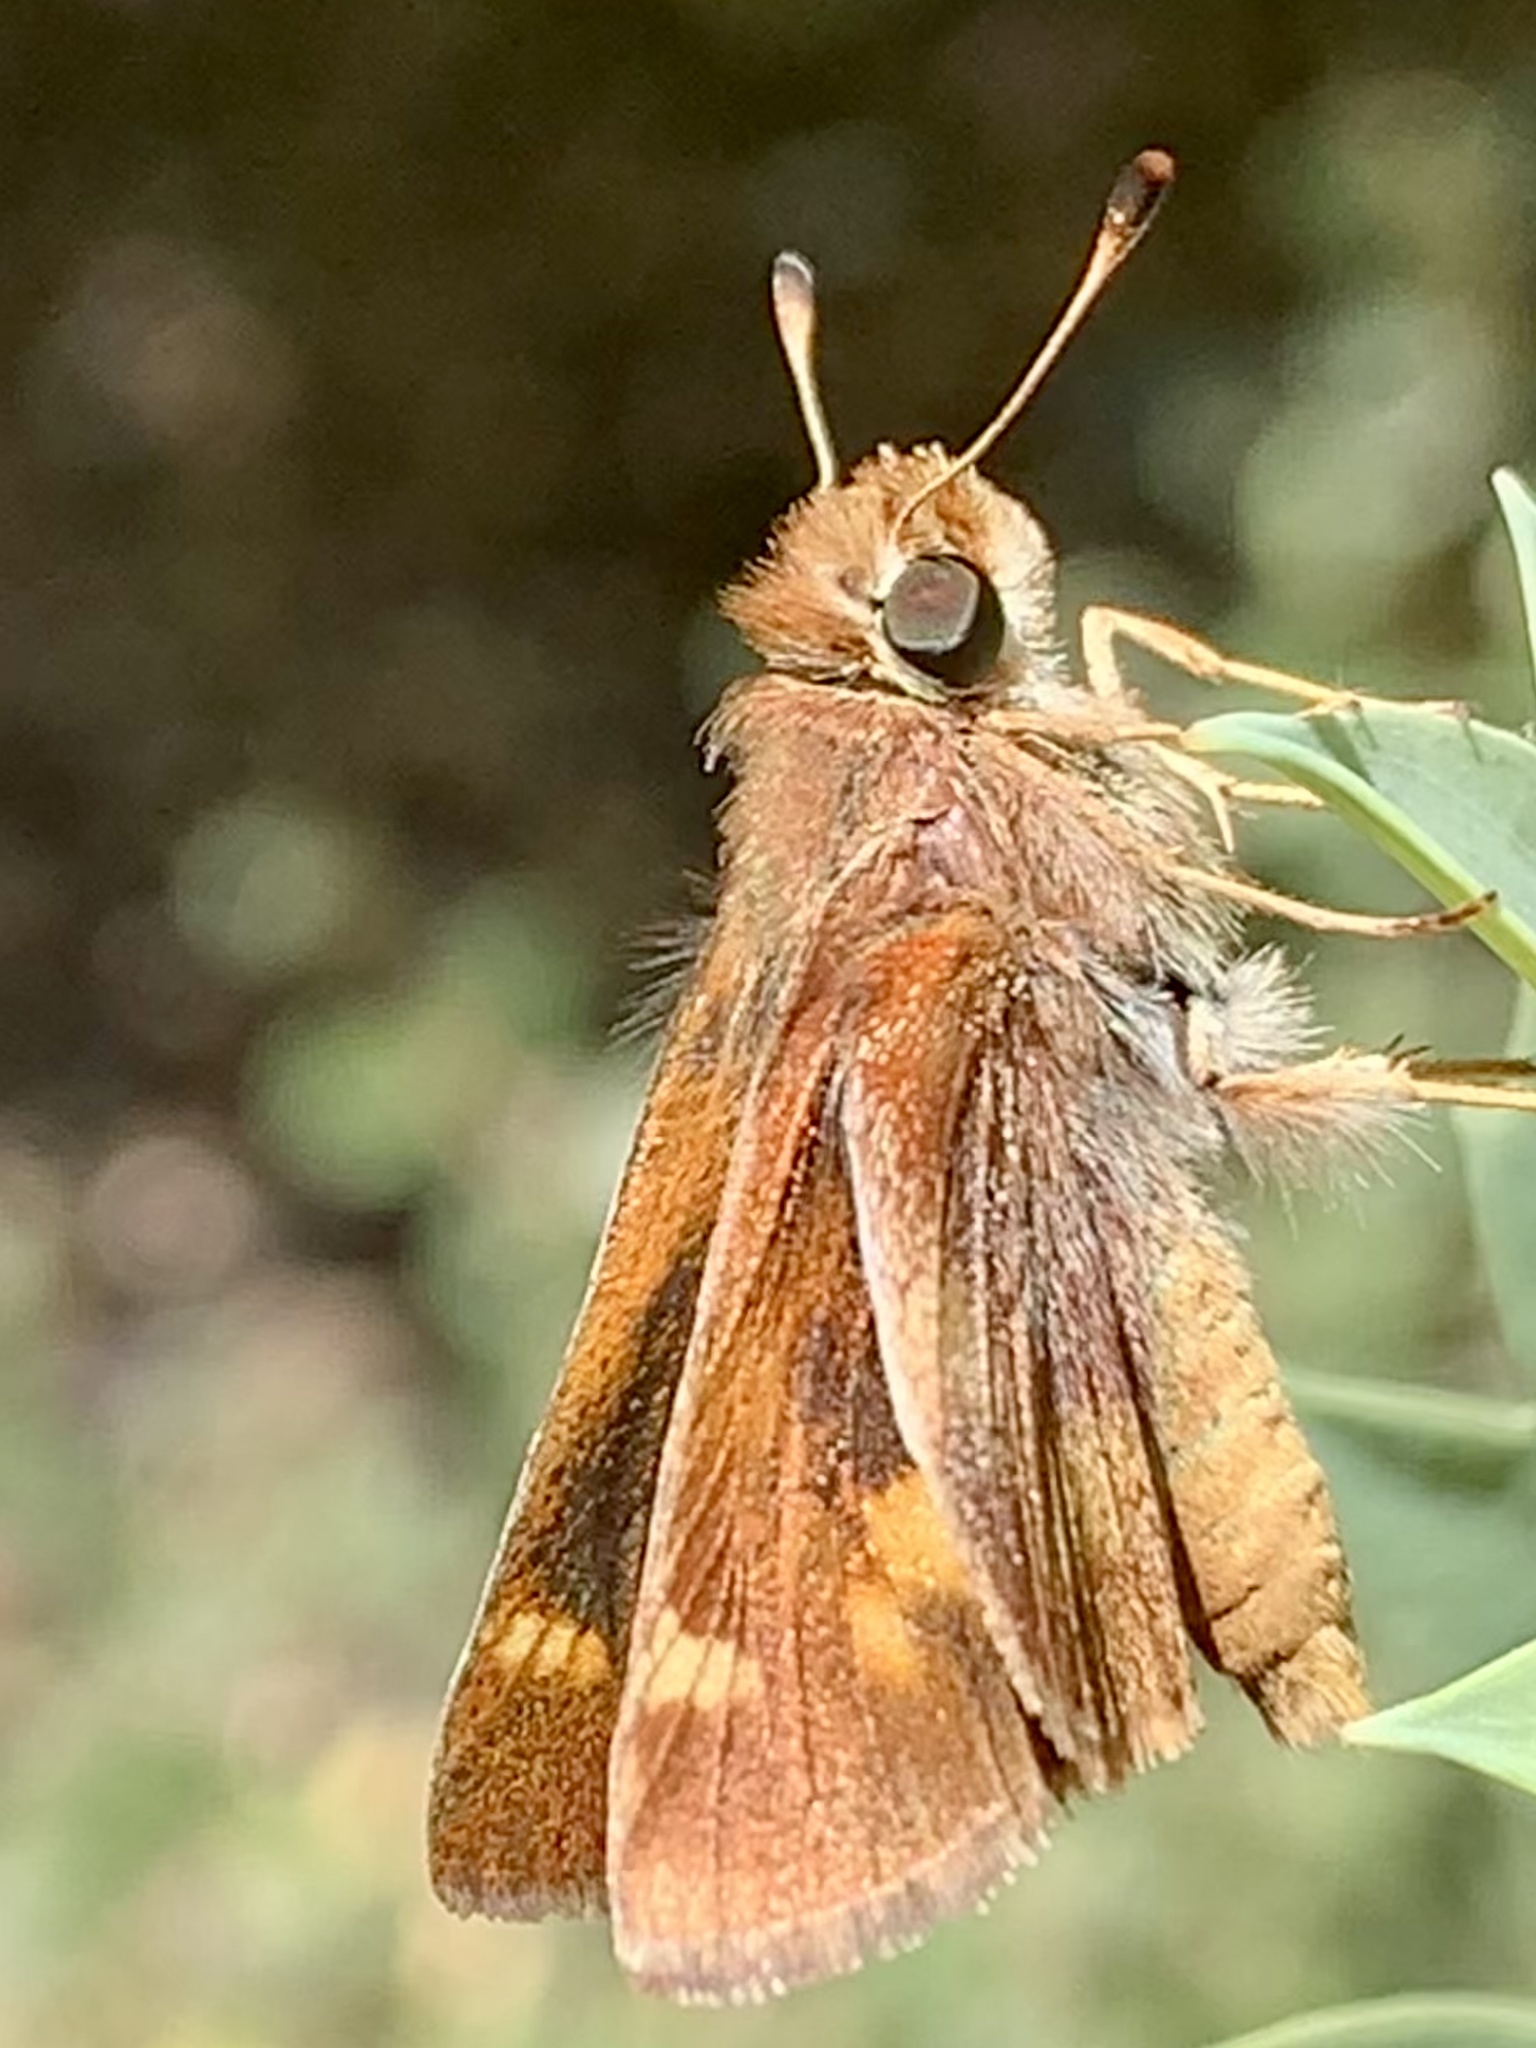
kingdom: Animalia
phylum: Arthropoda
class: Insecta
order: Lepidoptera
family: Hesperiidae
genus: Lon
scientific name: Lon melane
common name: Umber skipper
